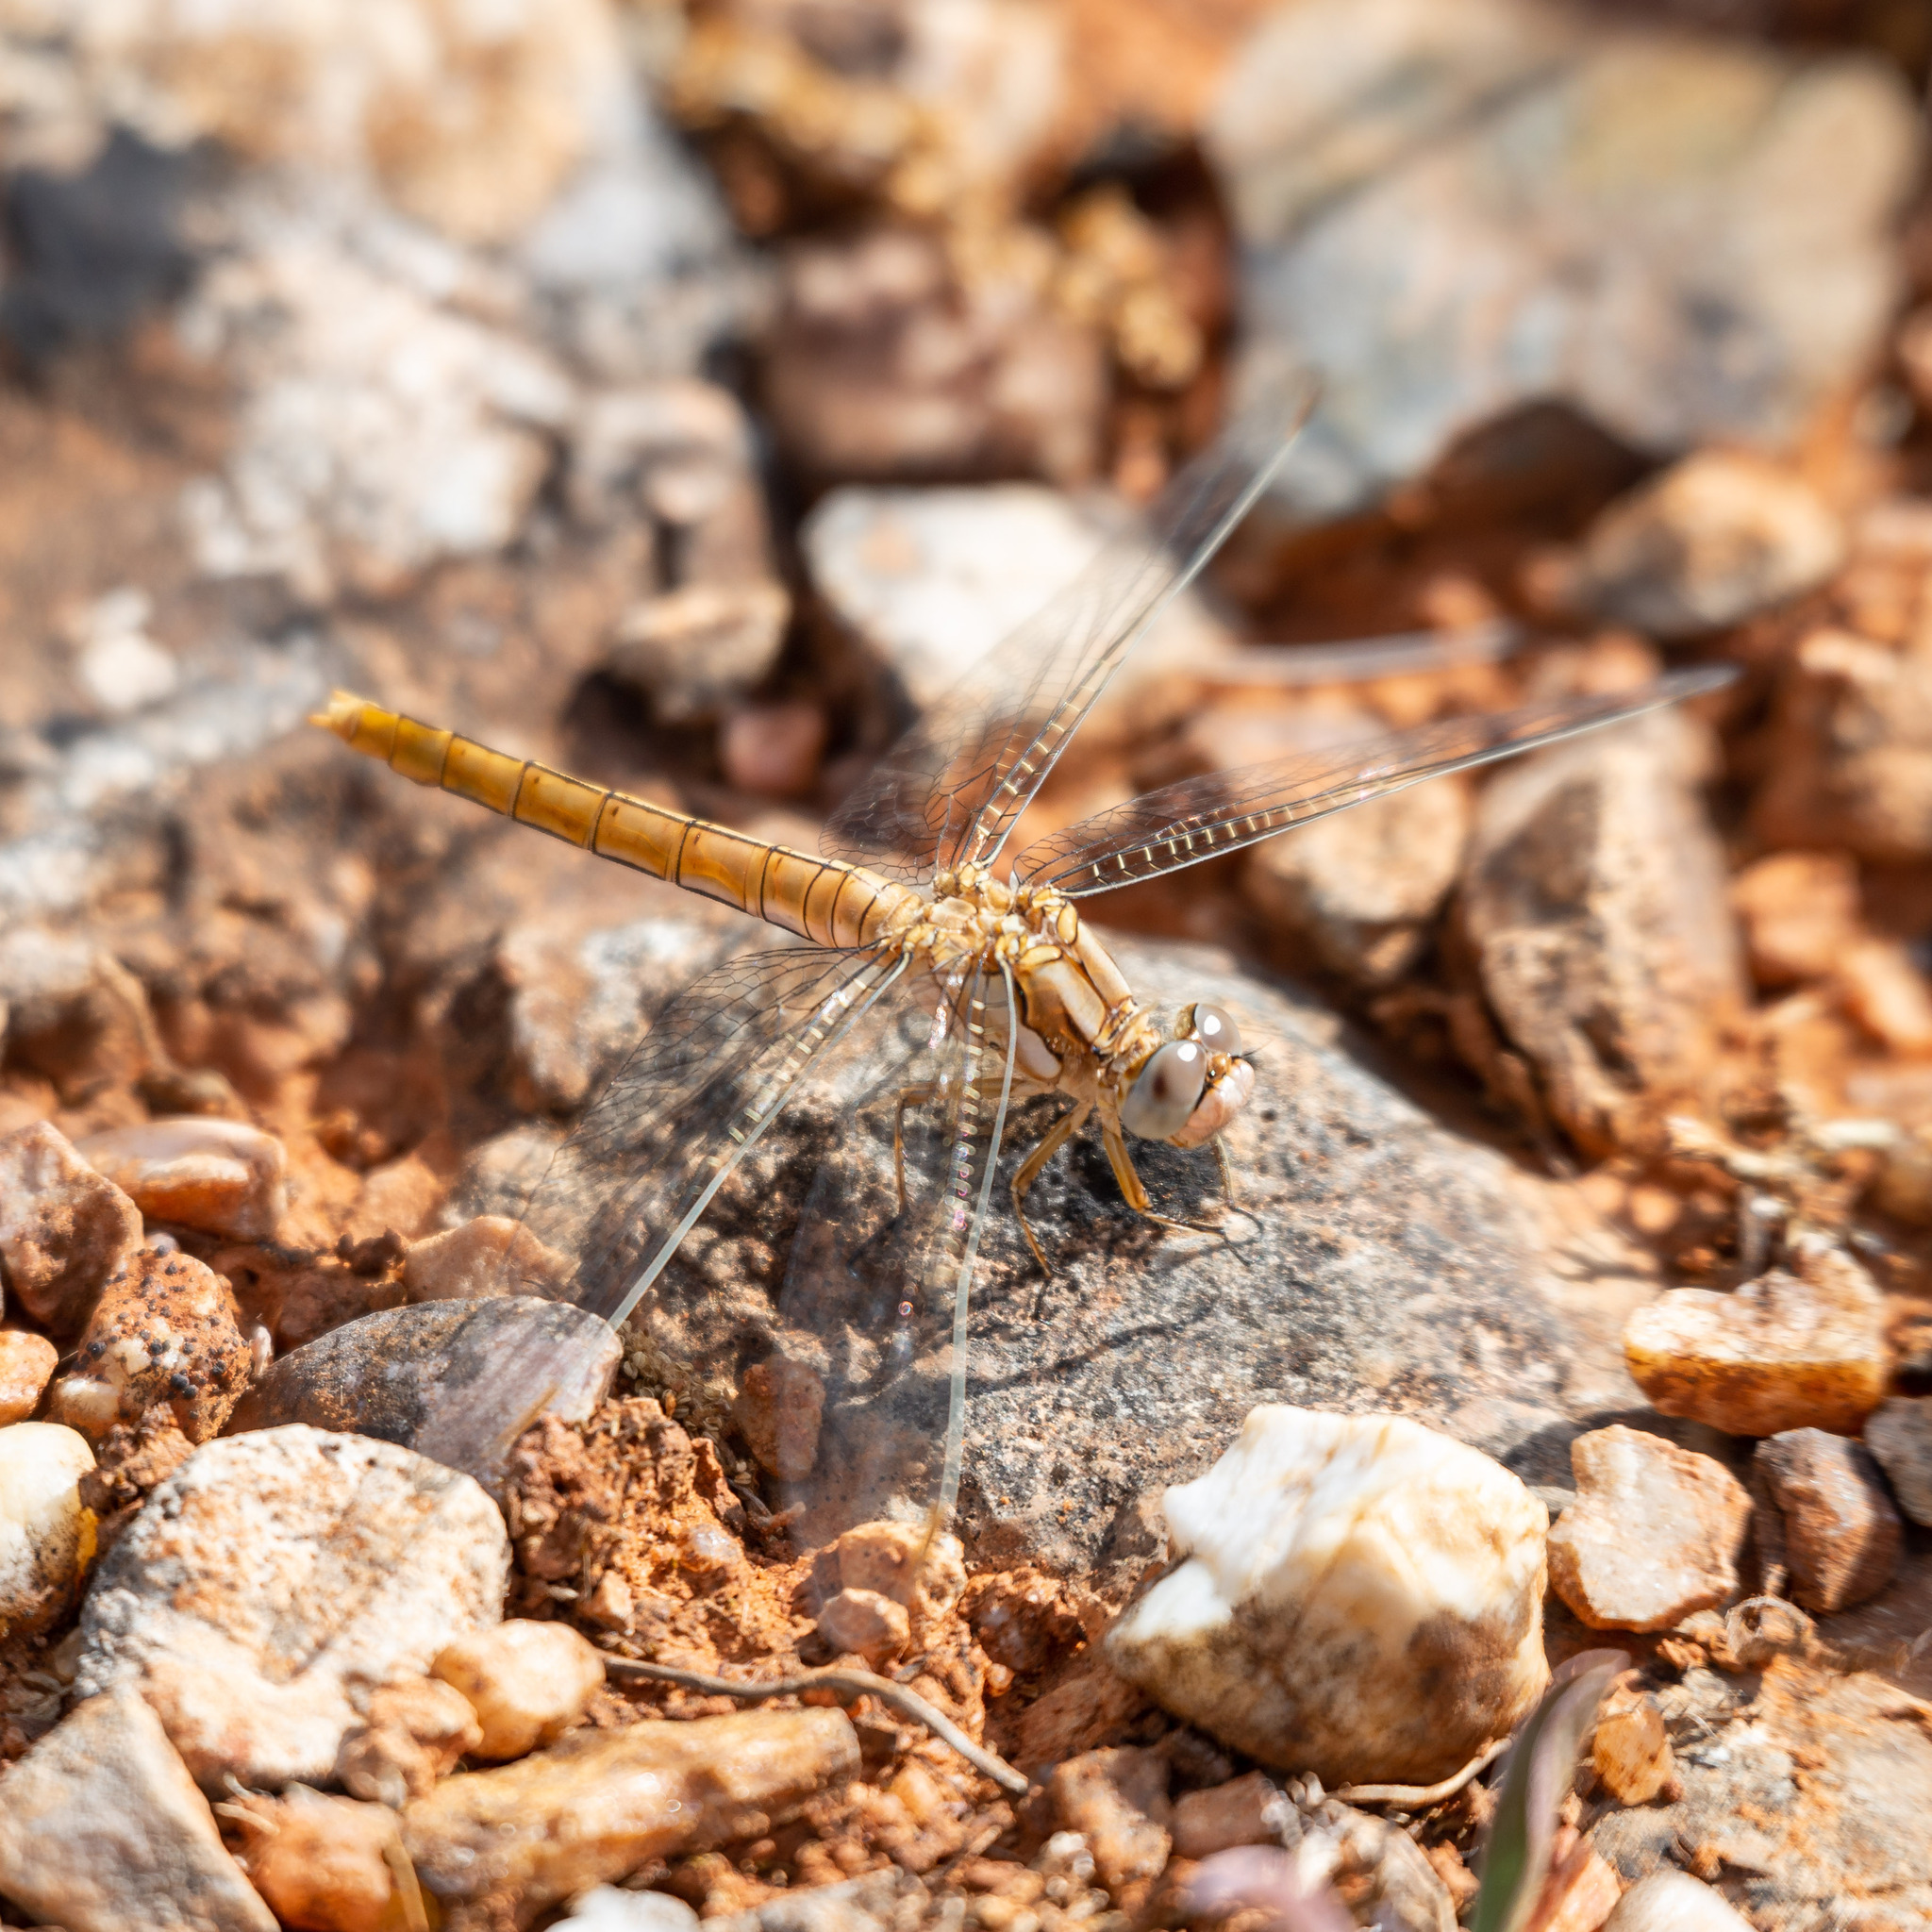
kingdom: Animalia
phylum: Arthropoda
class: Insecta
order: Odonata
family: Libellulidae
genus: Orthetrum
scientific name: Orthetrum brunneum
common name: Southern skimmer
